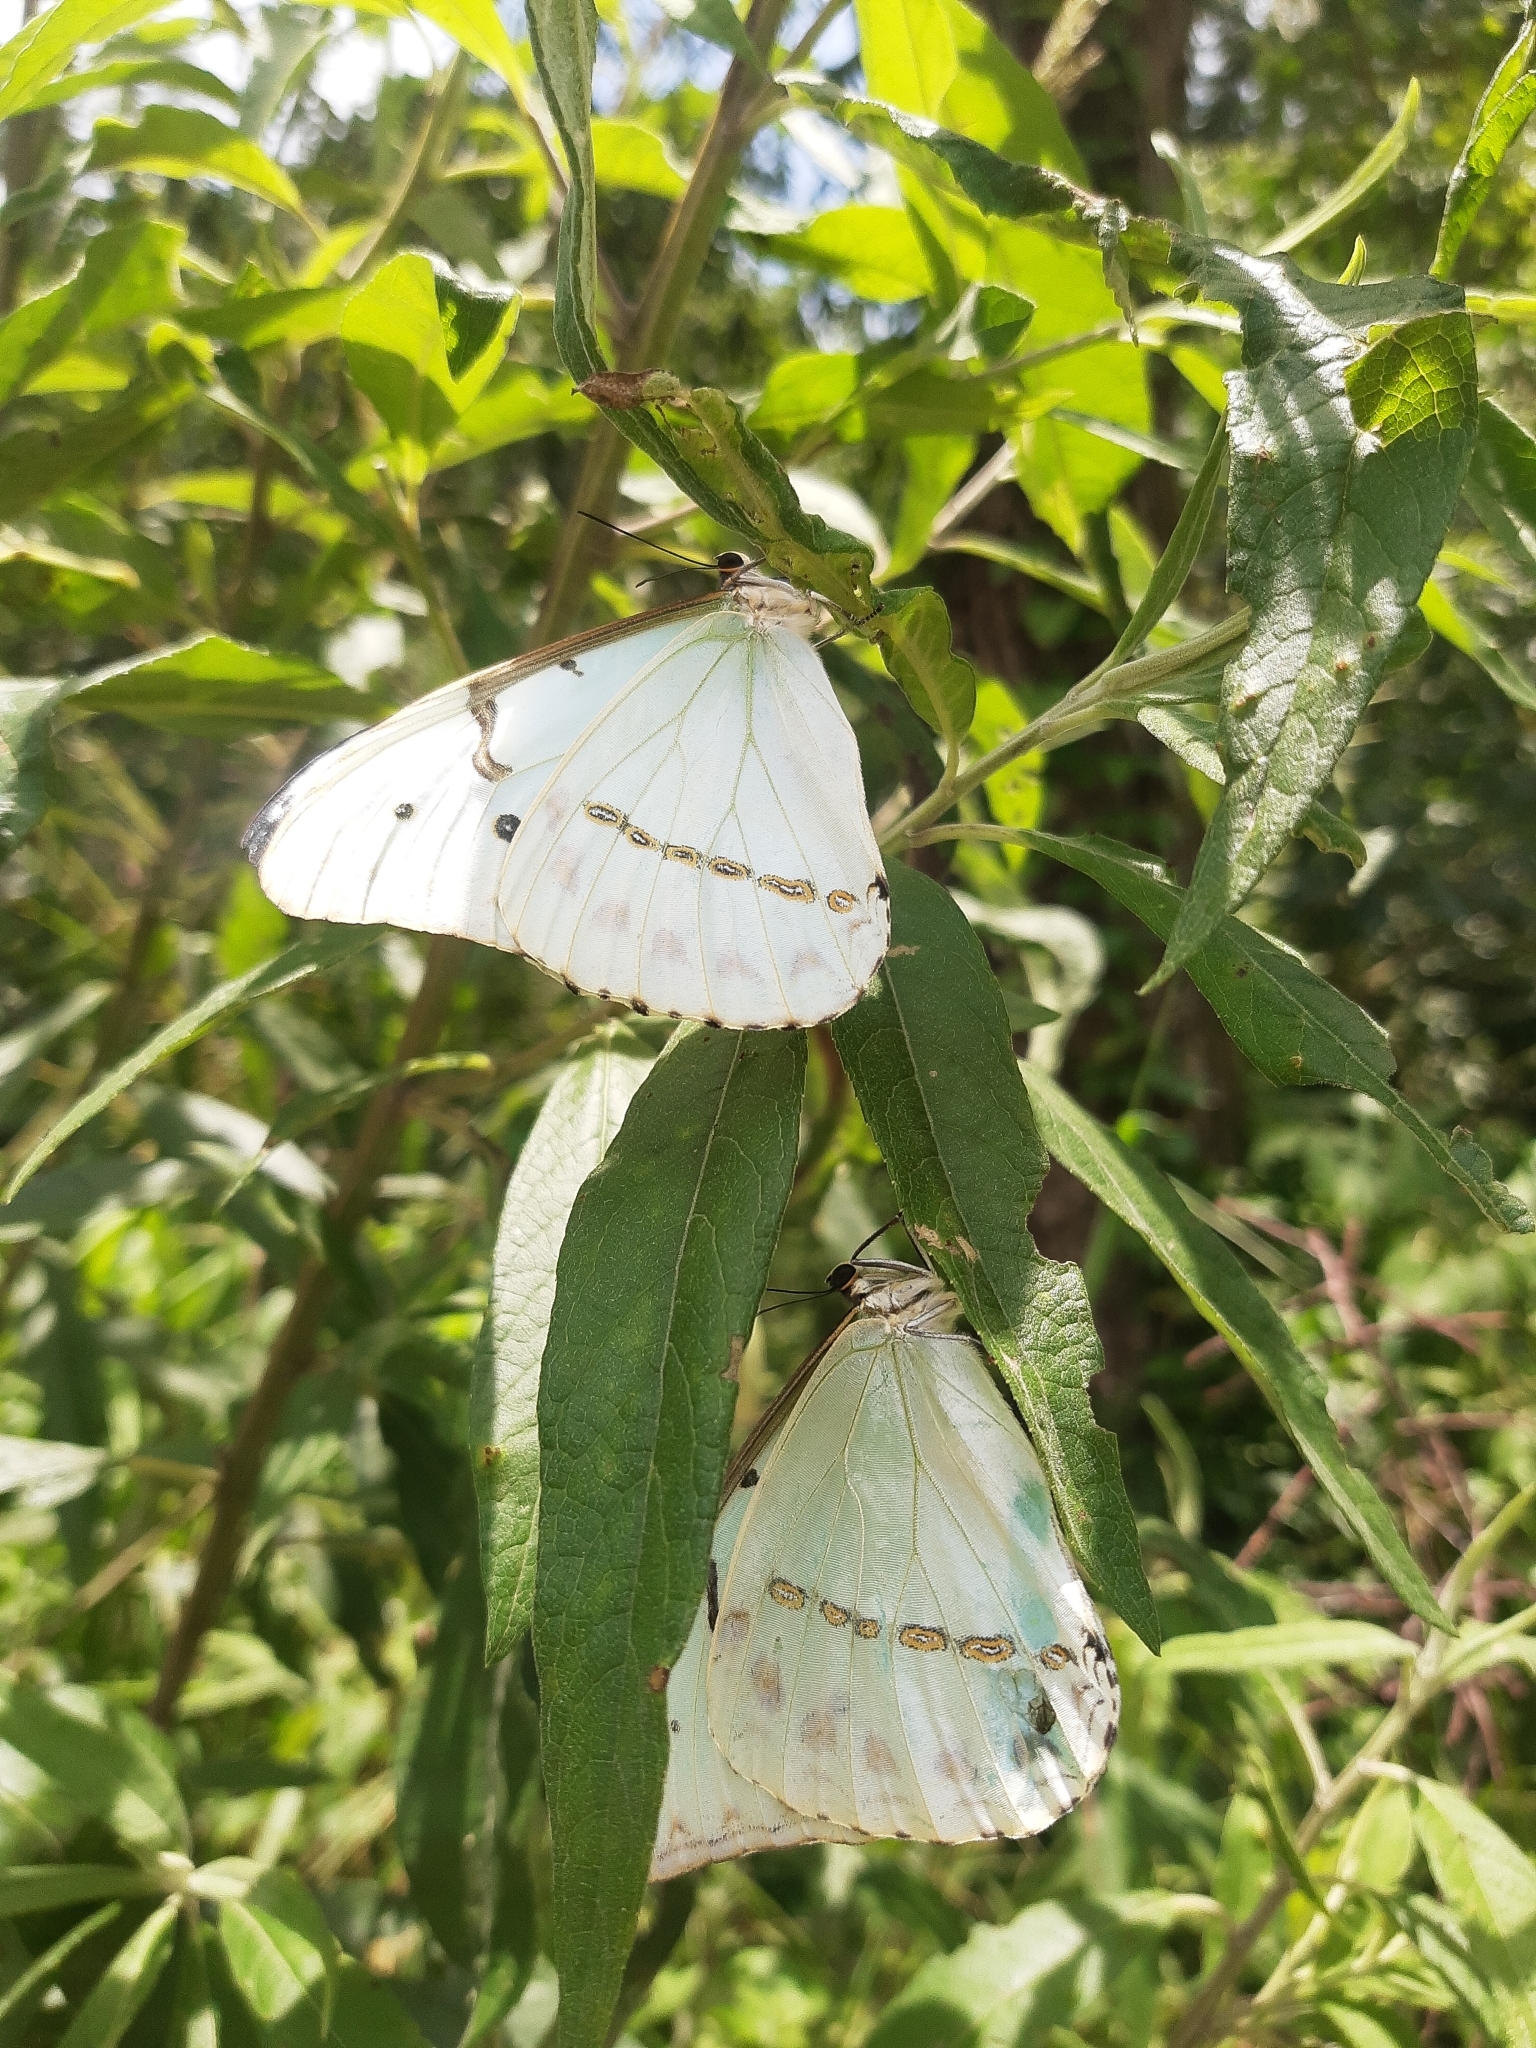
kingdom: Animalia
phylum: Arthropoda
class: Insecta
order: Lepidoptera
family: Nymphalidae
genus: Morpho
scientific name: Morpho epistrophus
